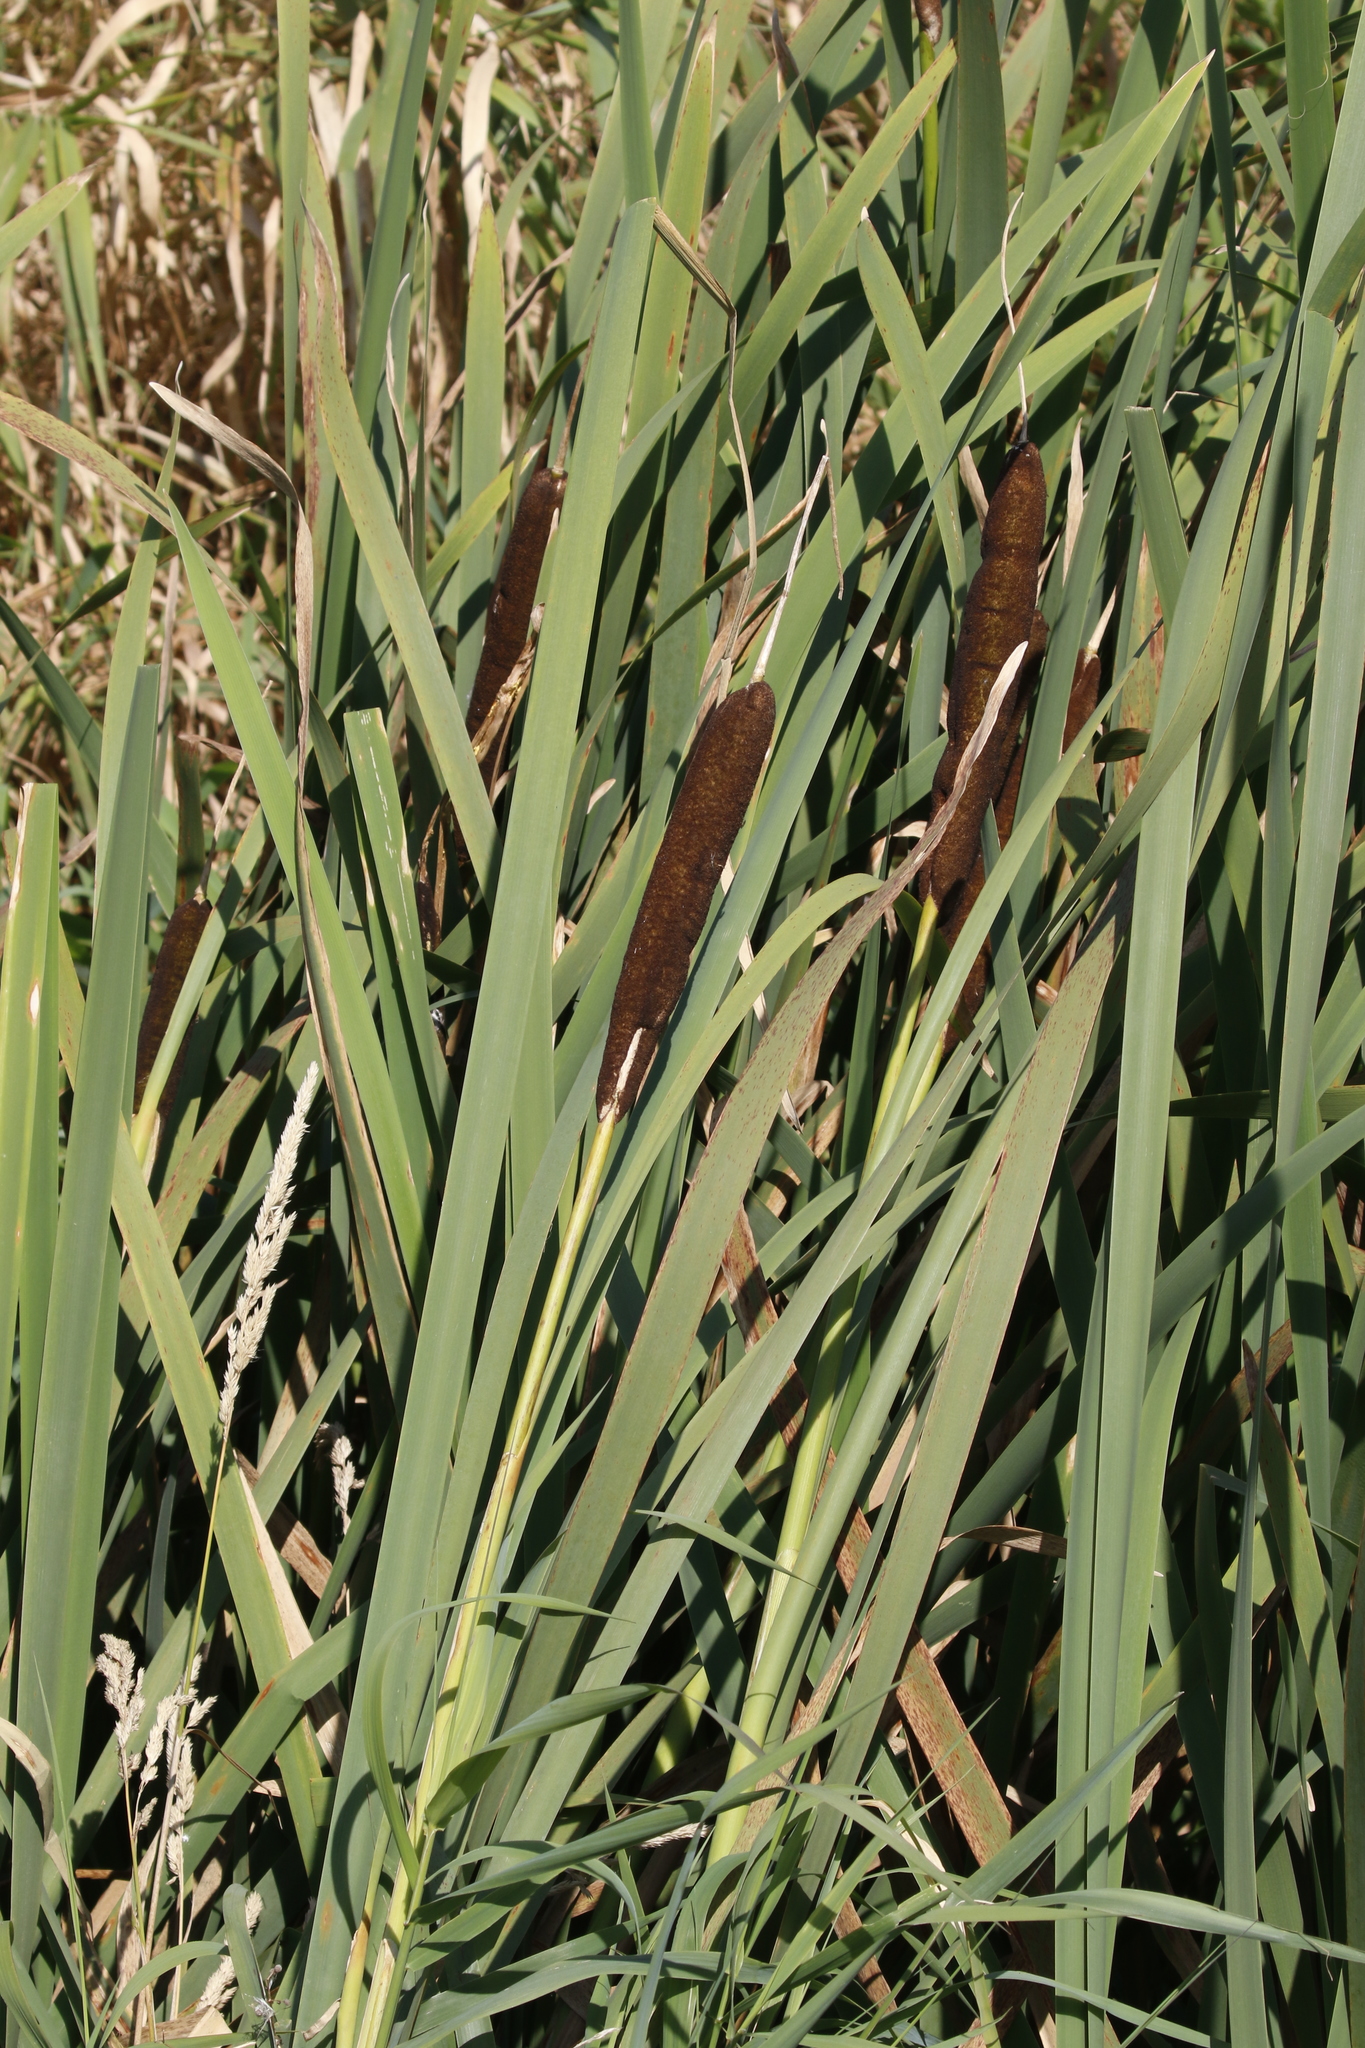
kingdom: Plantae
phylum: Tracheophyta
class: Liliopsida
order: Poales
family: Typhaceae
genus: Typha
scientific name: Typha latifolia
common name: Broadleaf cattail
